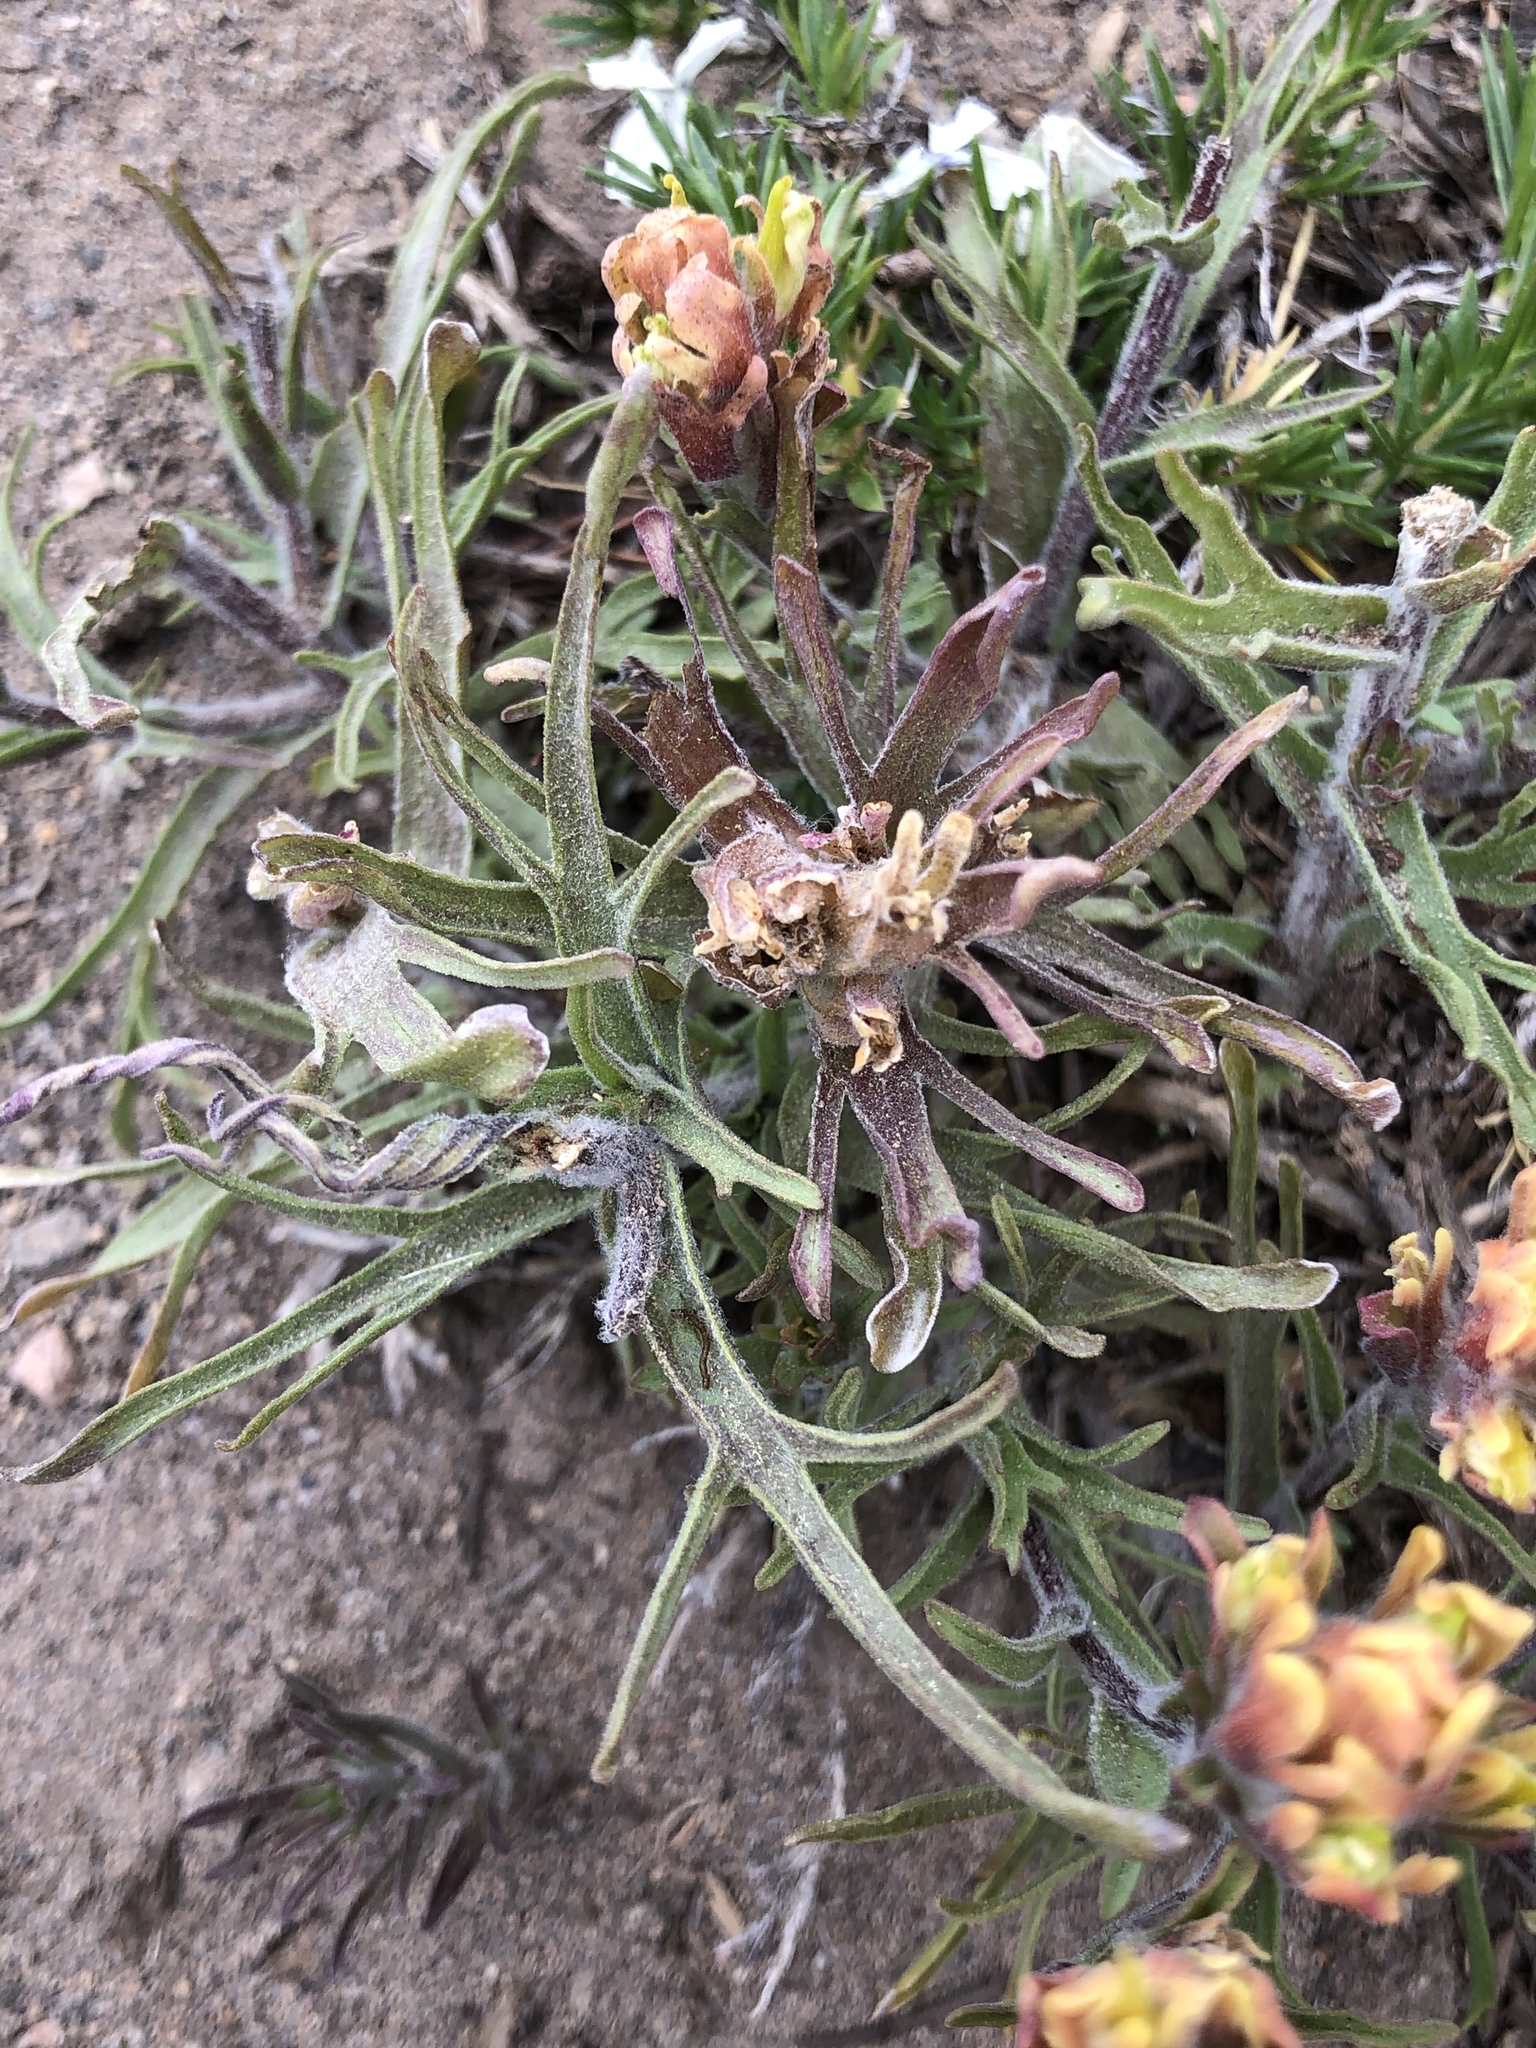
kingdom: Plantae
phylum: Tracheophyta
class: Magnoliopsida
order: Lamiales
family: Orobanchaceae
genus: Castilleja
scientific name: Castilleja arachnoidea
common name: Cobwebby indian paintbrush
